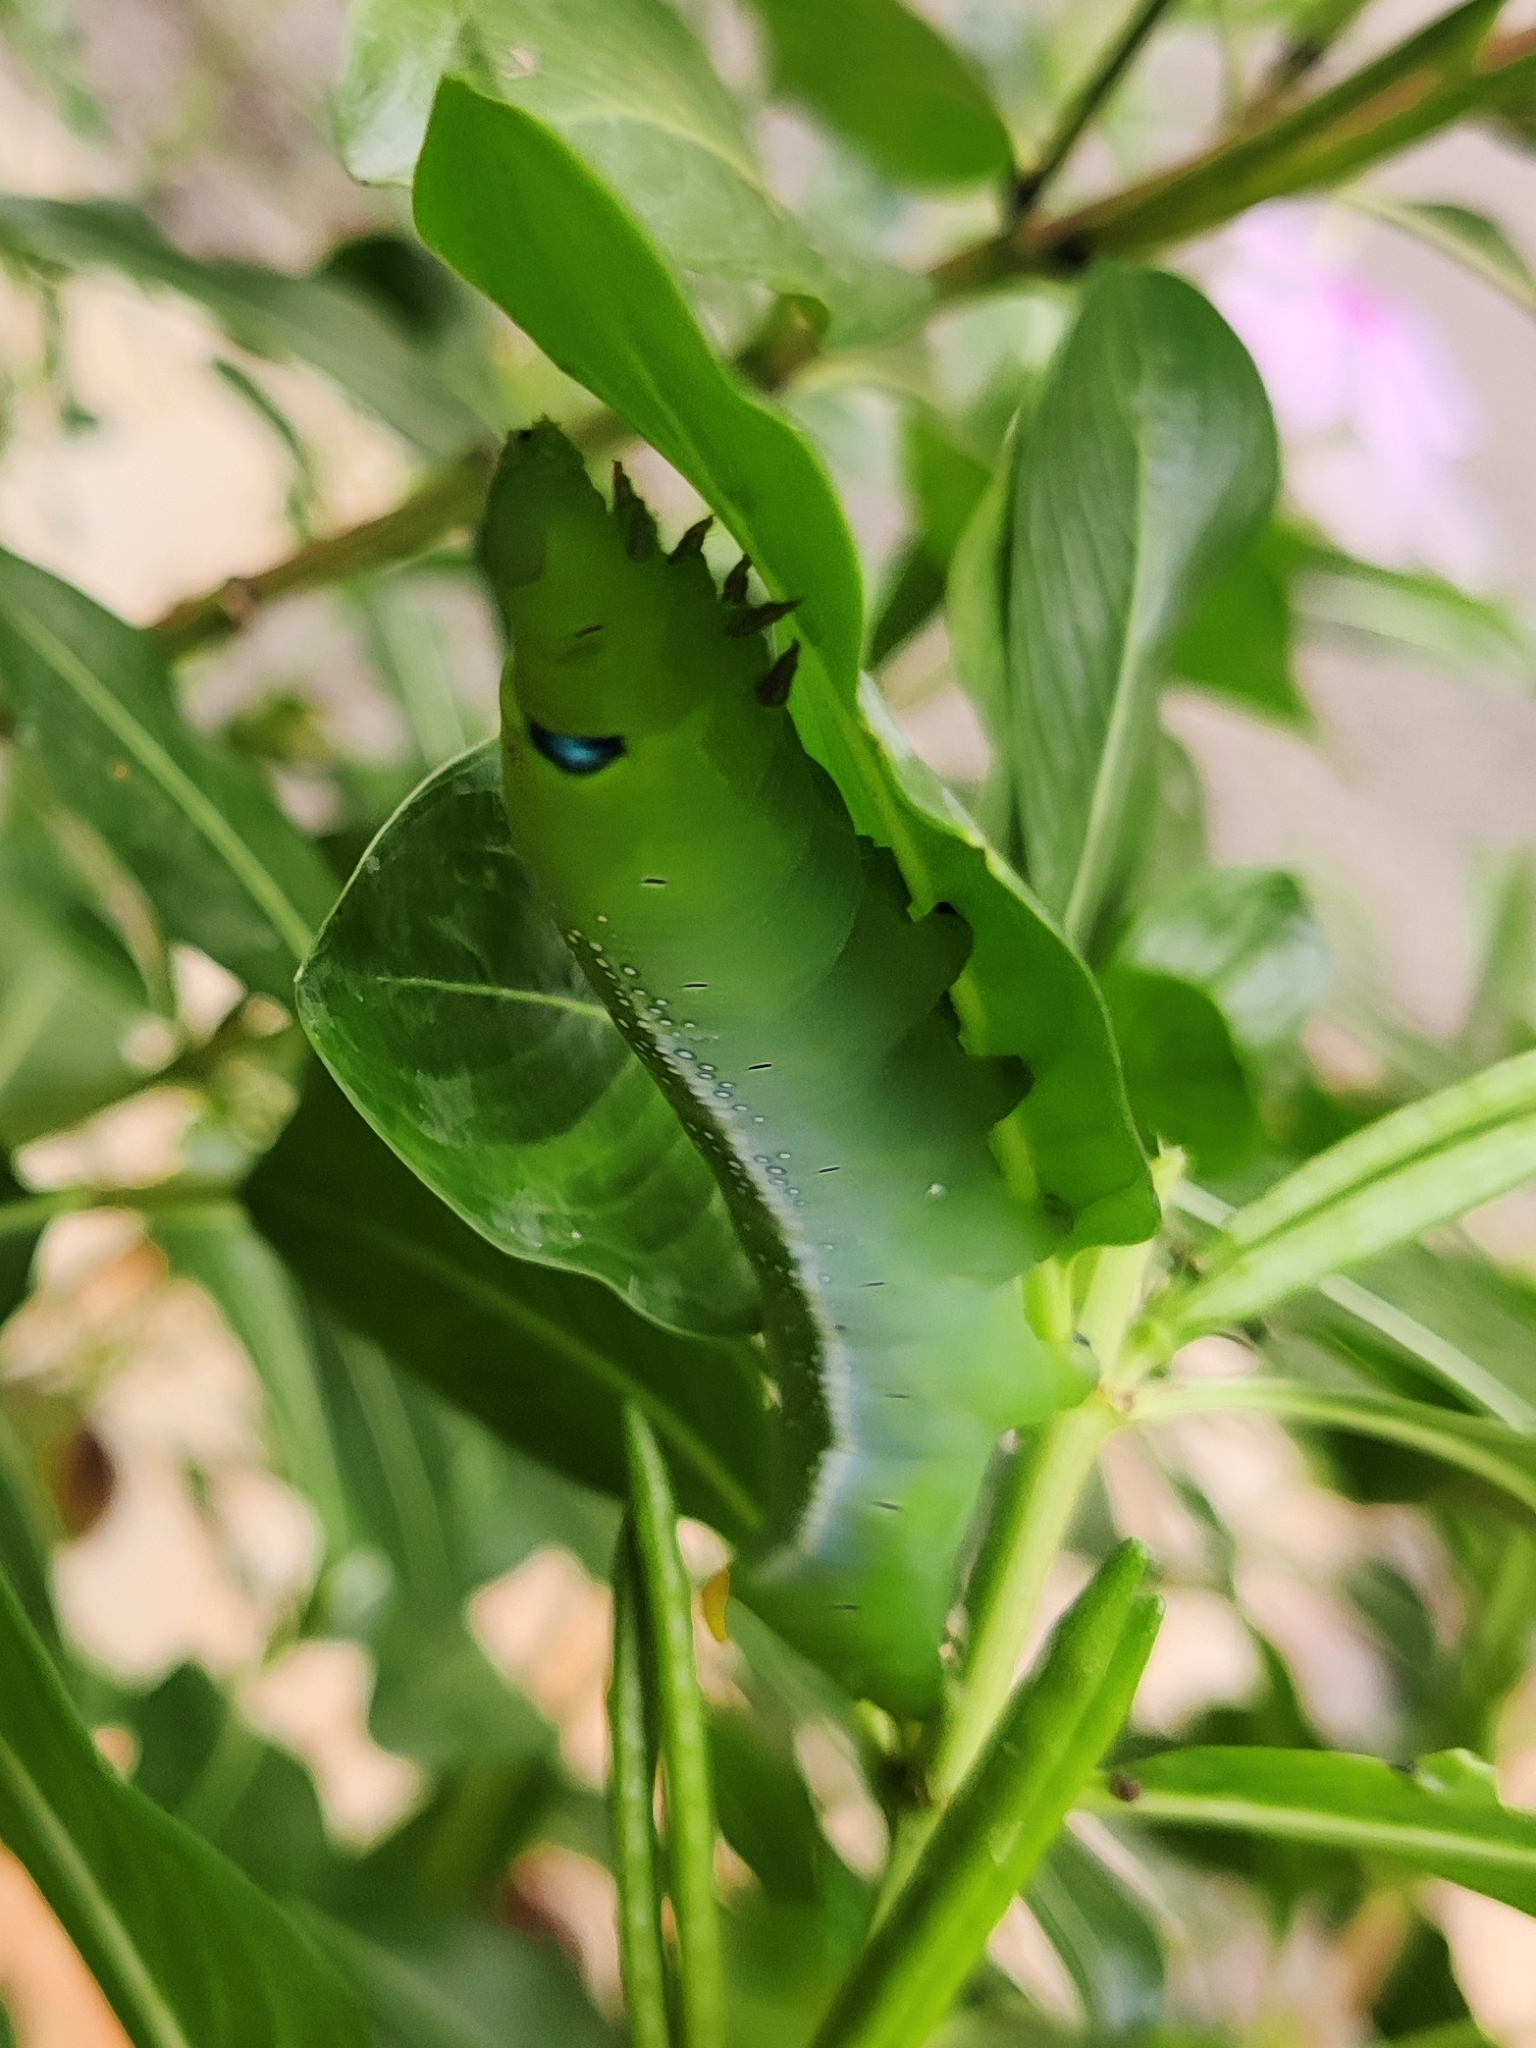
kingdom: Animalia
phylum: Arthropoda
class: Insecta
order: Lepidoptera
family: Sphingidae
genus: Daphnis
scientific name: Daphnis nerii
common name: Oleander hawk-moth
